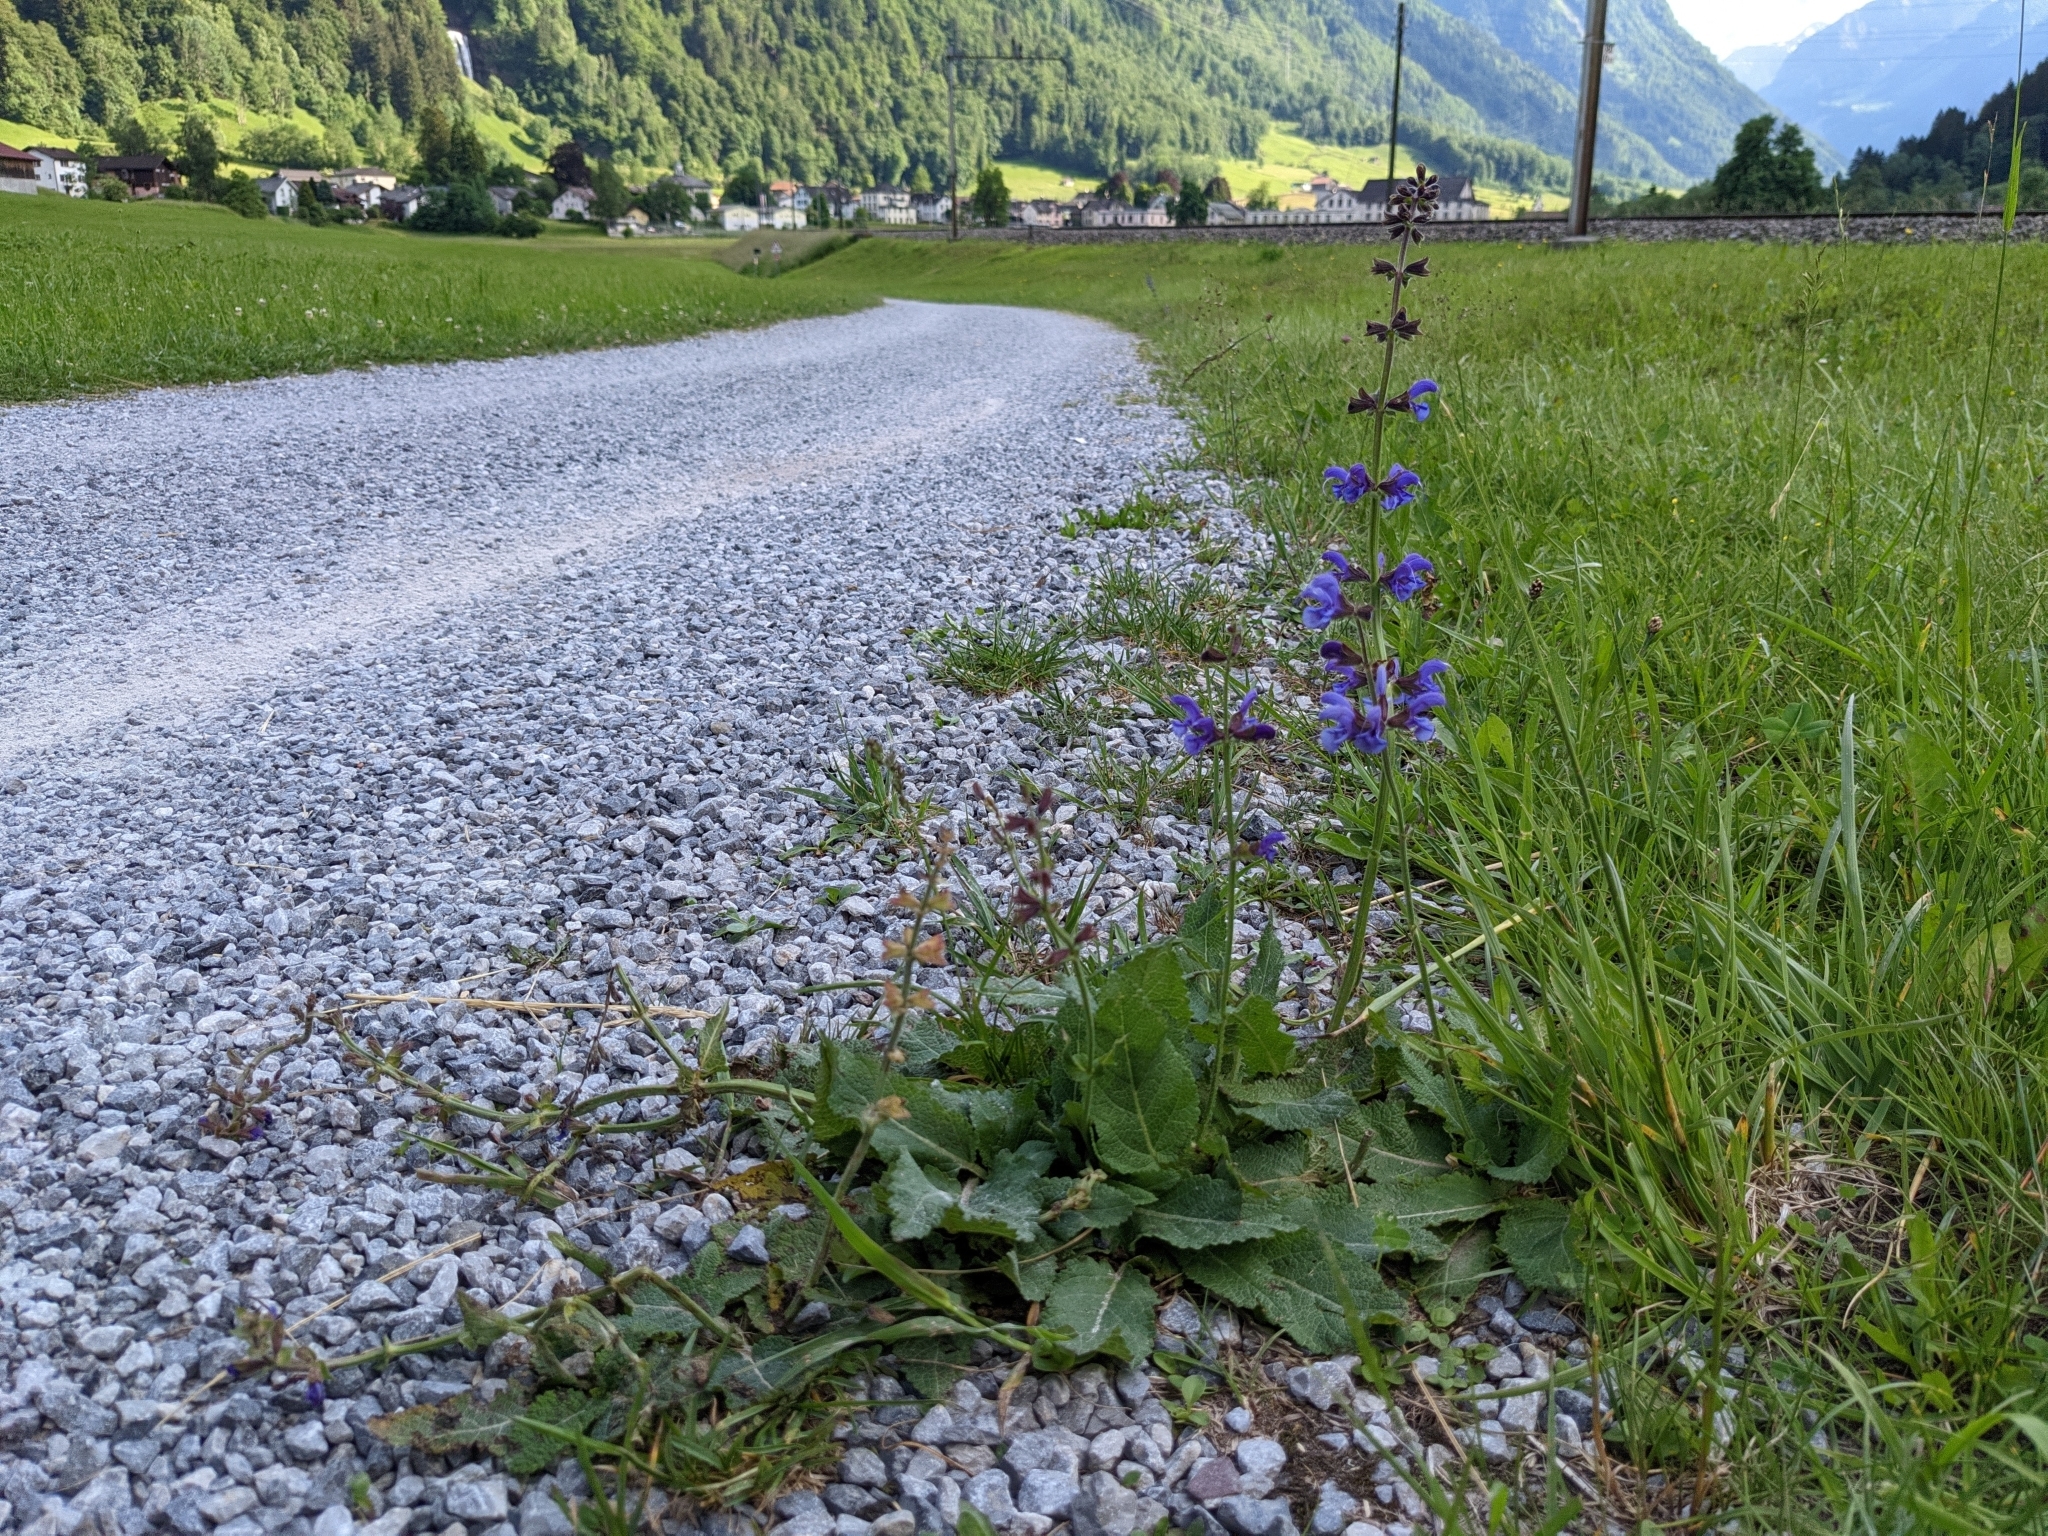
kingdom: Plantae
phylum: Tracheophyta
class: Magnoliopsida
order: Lamiales
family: Lamiaceae
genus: Salvia
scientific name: Salvia pratensis
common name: Meadow sage
